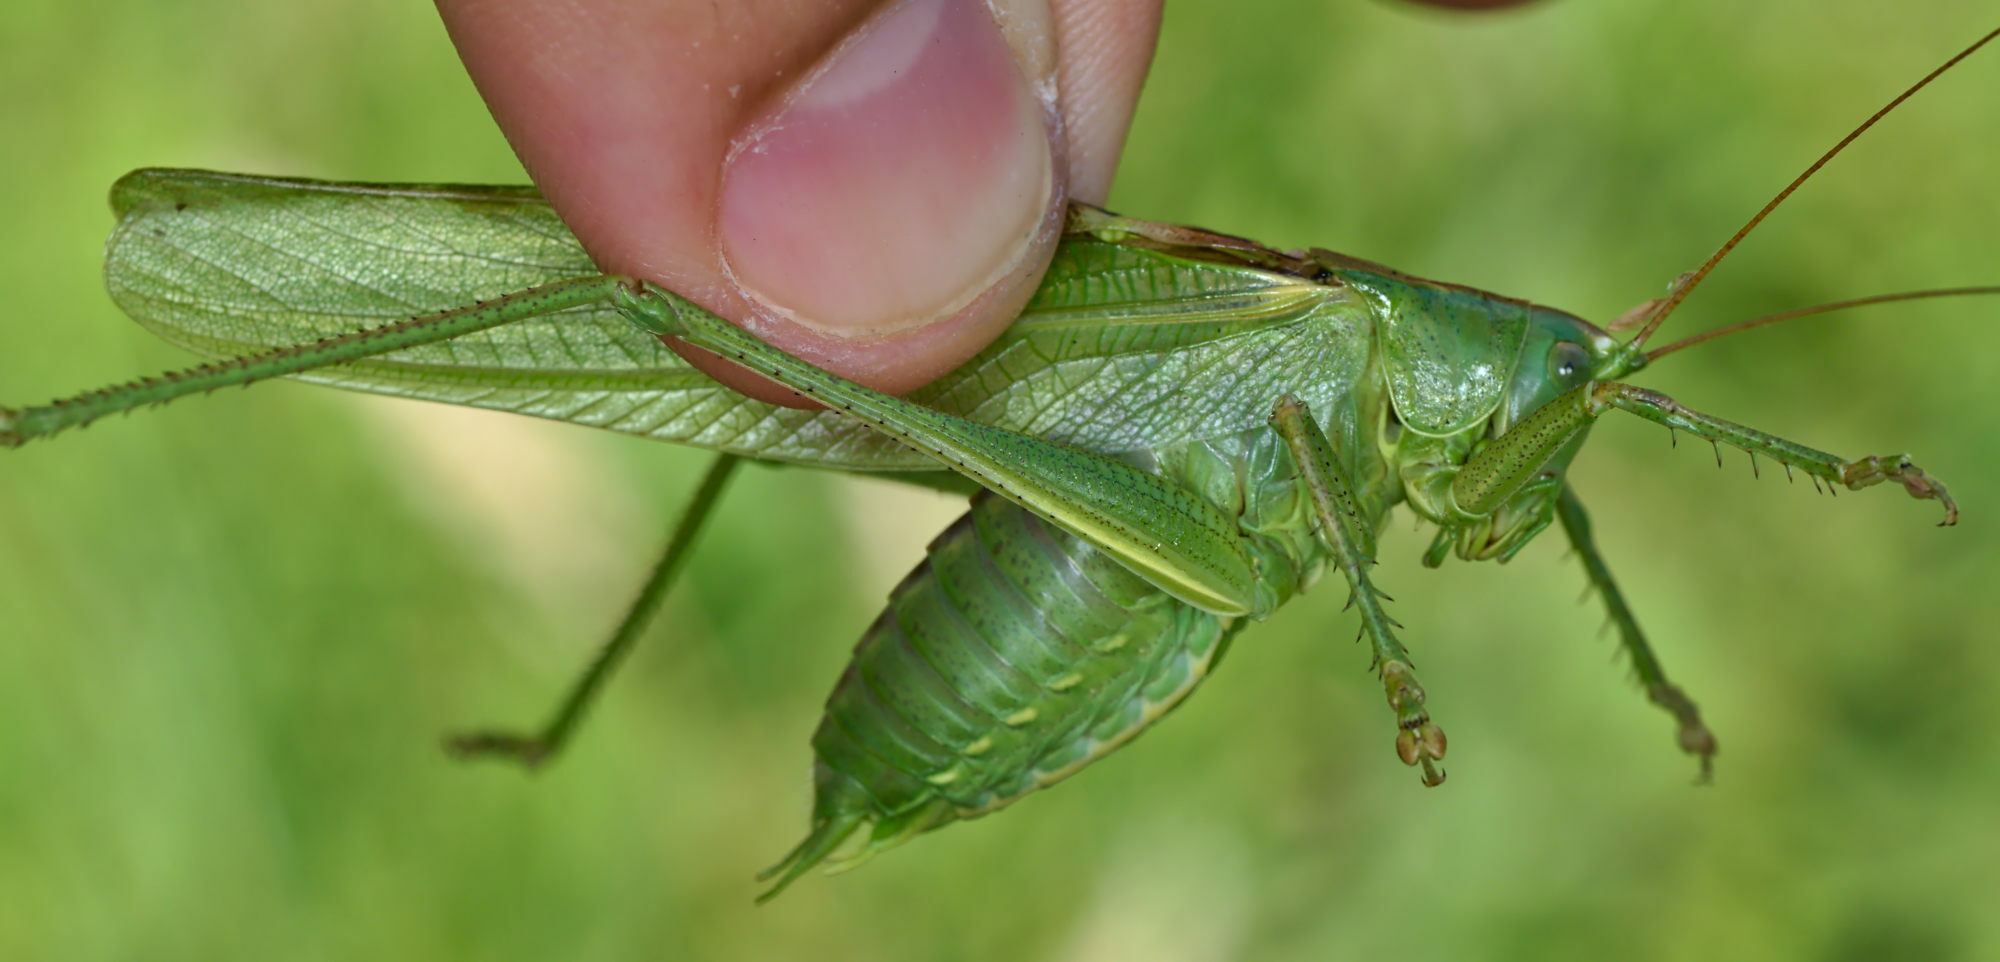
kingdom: Animalia
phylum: Arthropoda
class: Insecta
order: Orthoptera
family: Tettigoniidae
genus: Tettigonia
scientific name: Tettigonia viridissima
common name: Great green bush-cricket
